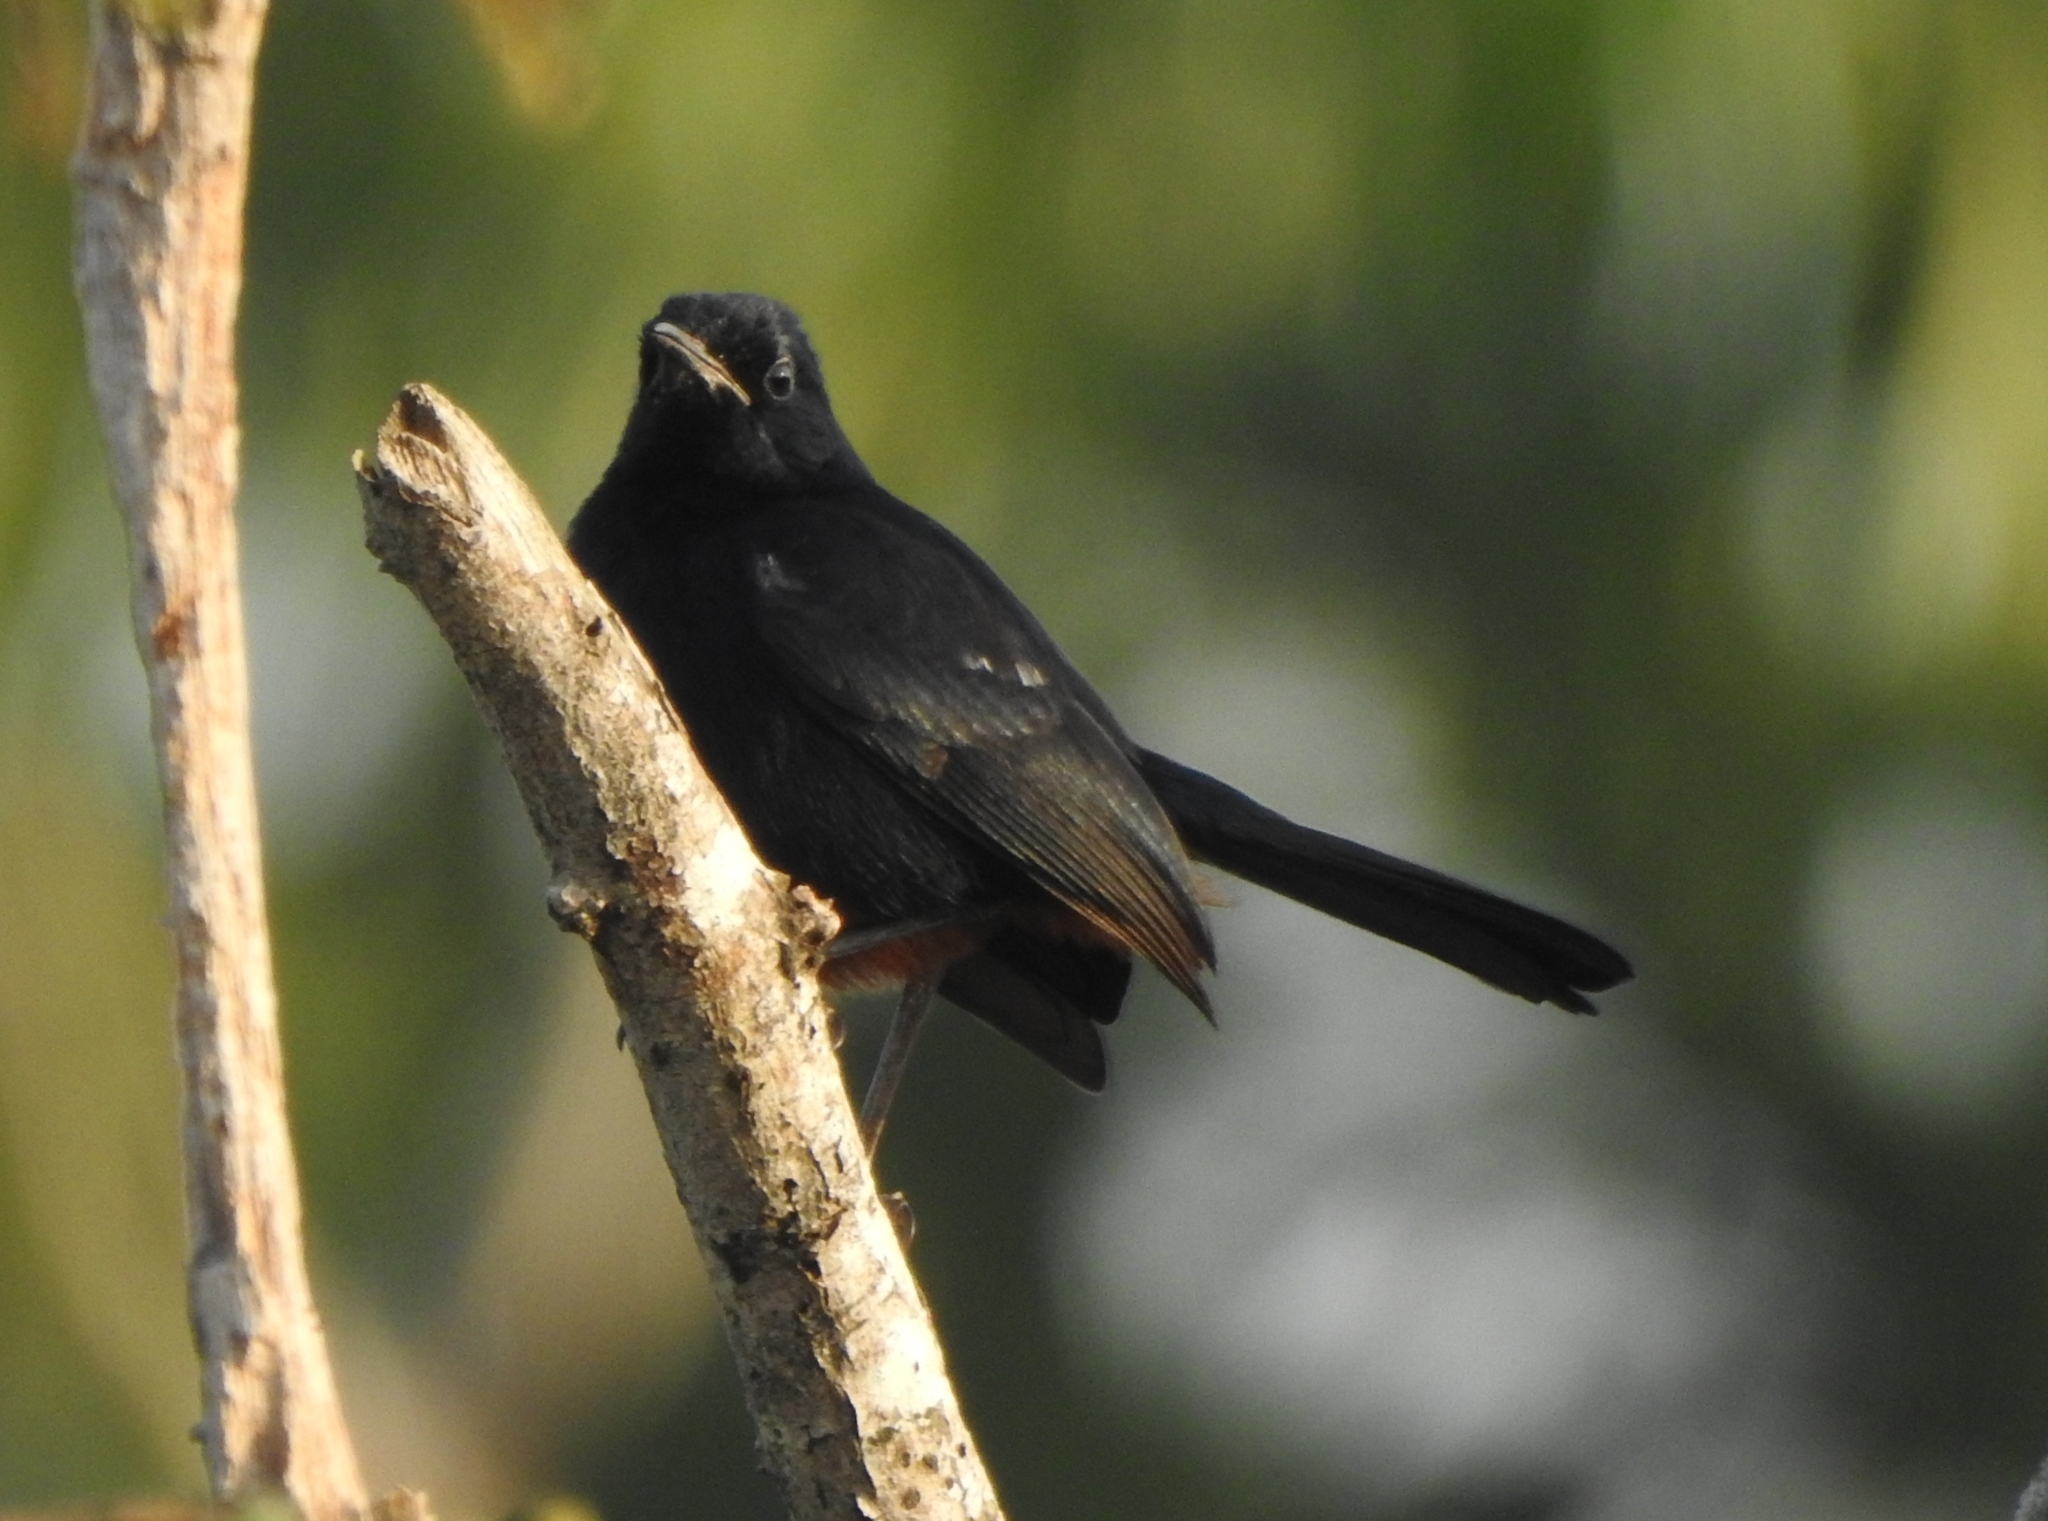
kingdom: Animalia
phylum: Chordata
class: Aves
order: Passeriformes
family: Muscicapidae
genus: Saxicoloides
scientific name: Saxicoloides fulicatus
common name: Indian robin
